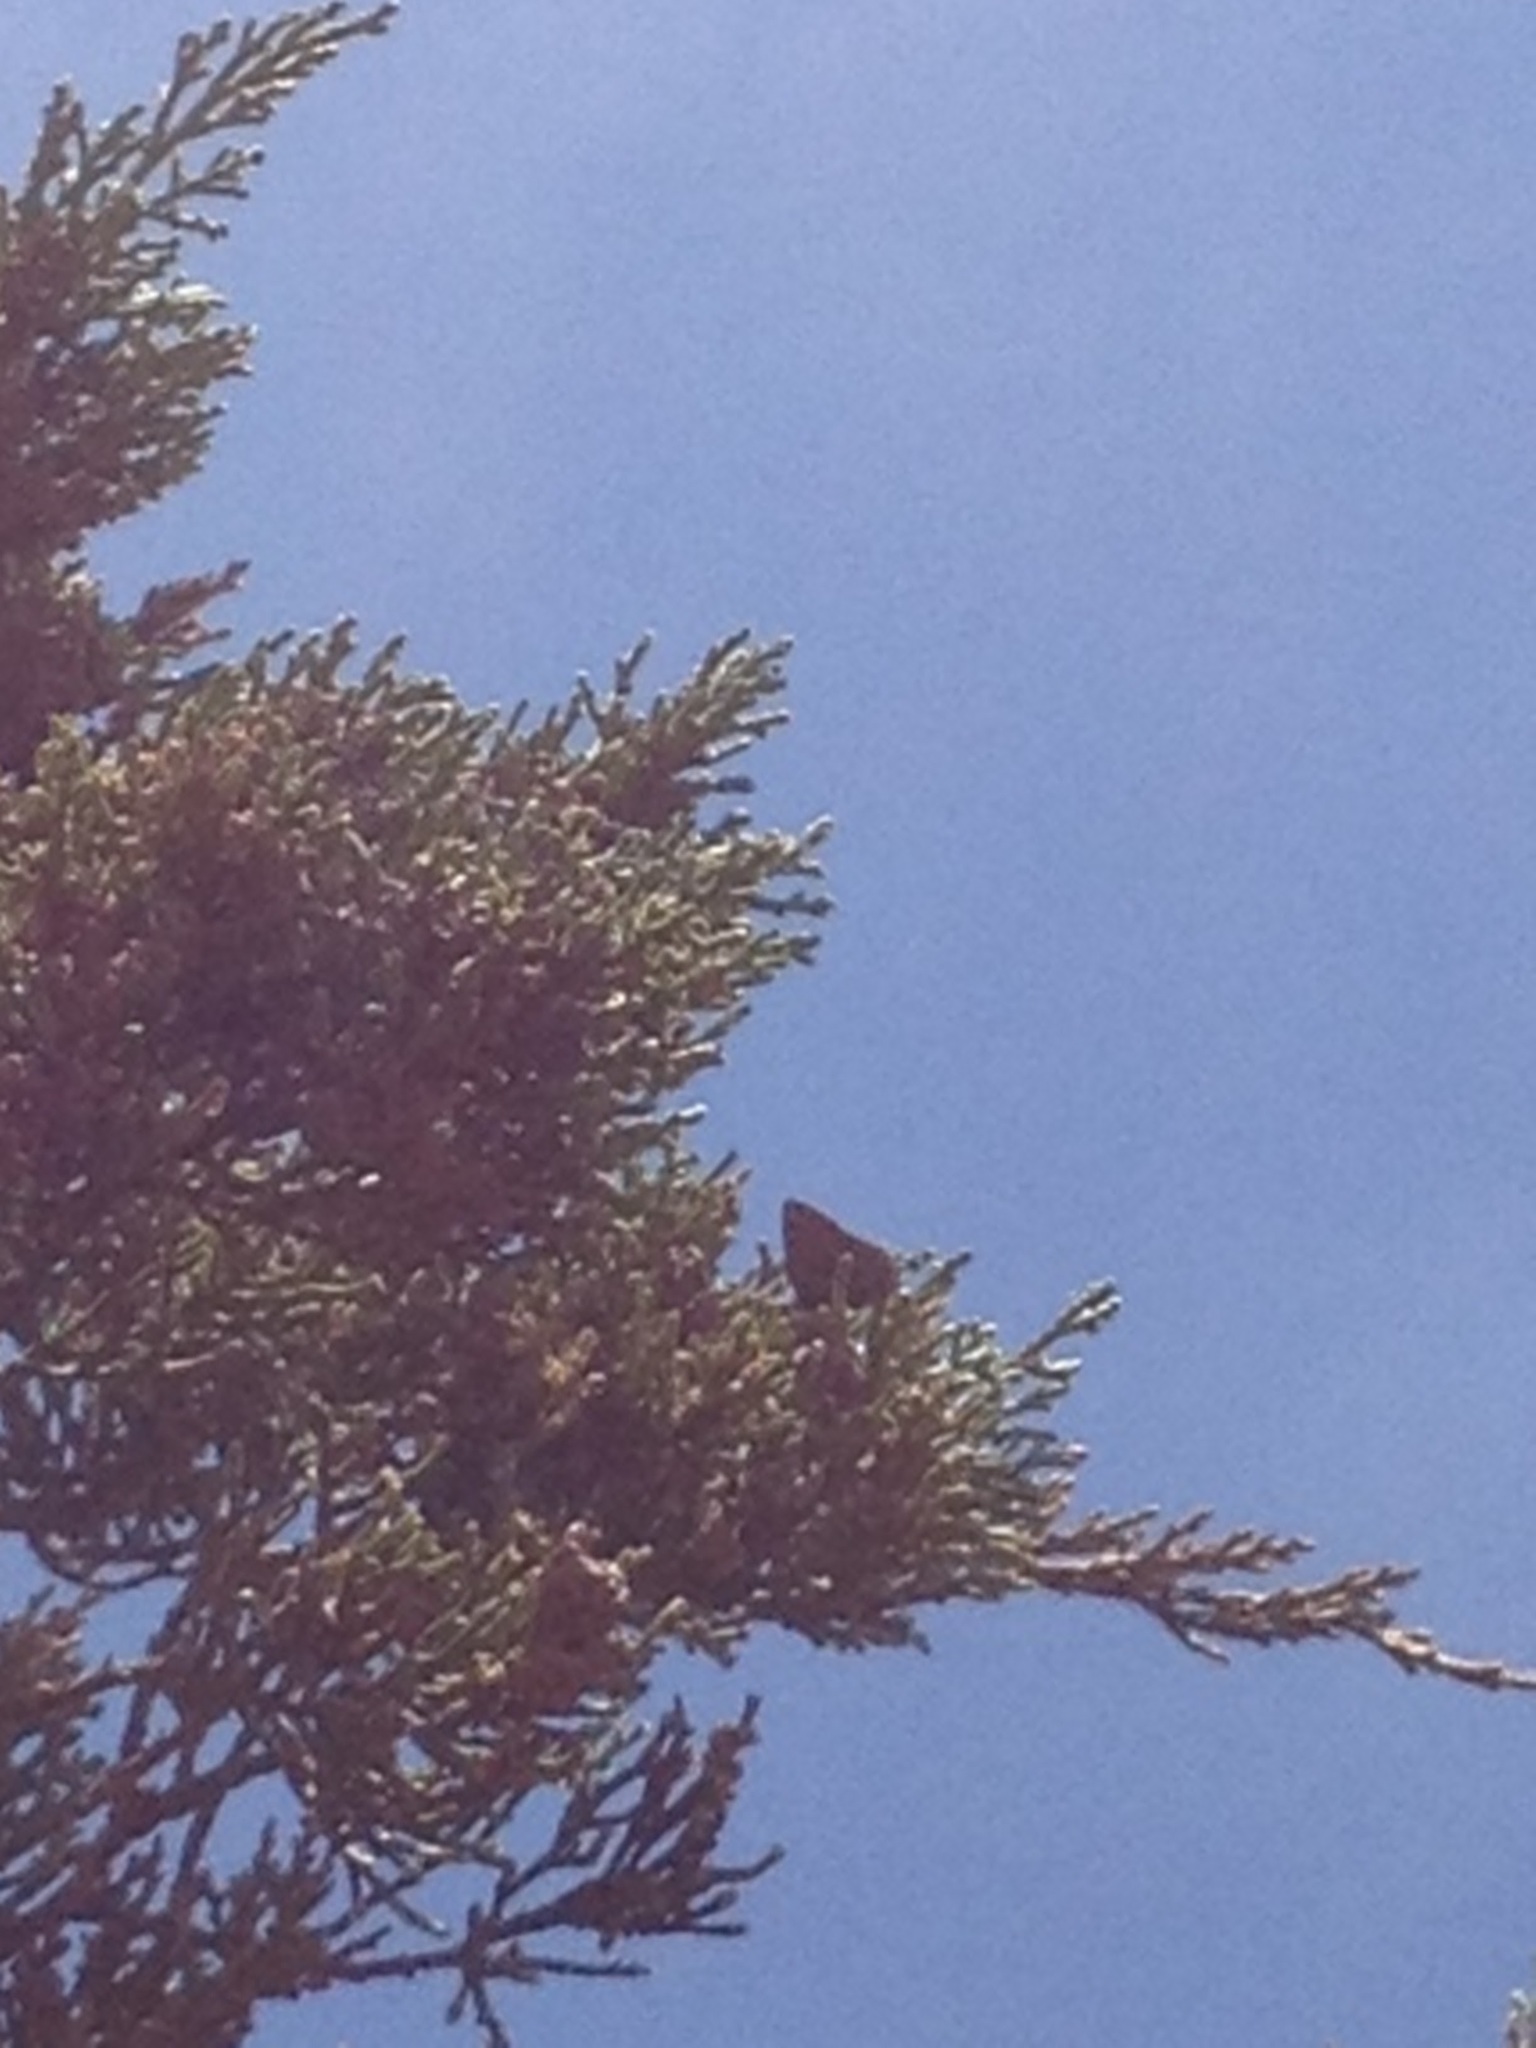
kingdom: Animalia
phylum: Arthropoda
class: Insecta
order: Lepidoptera
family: Lycaenidae
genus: Mitoura
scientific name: Mitoura gryneus
